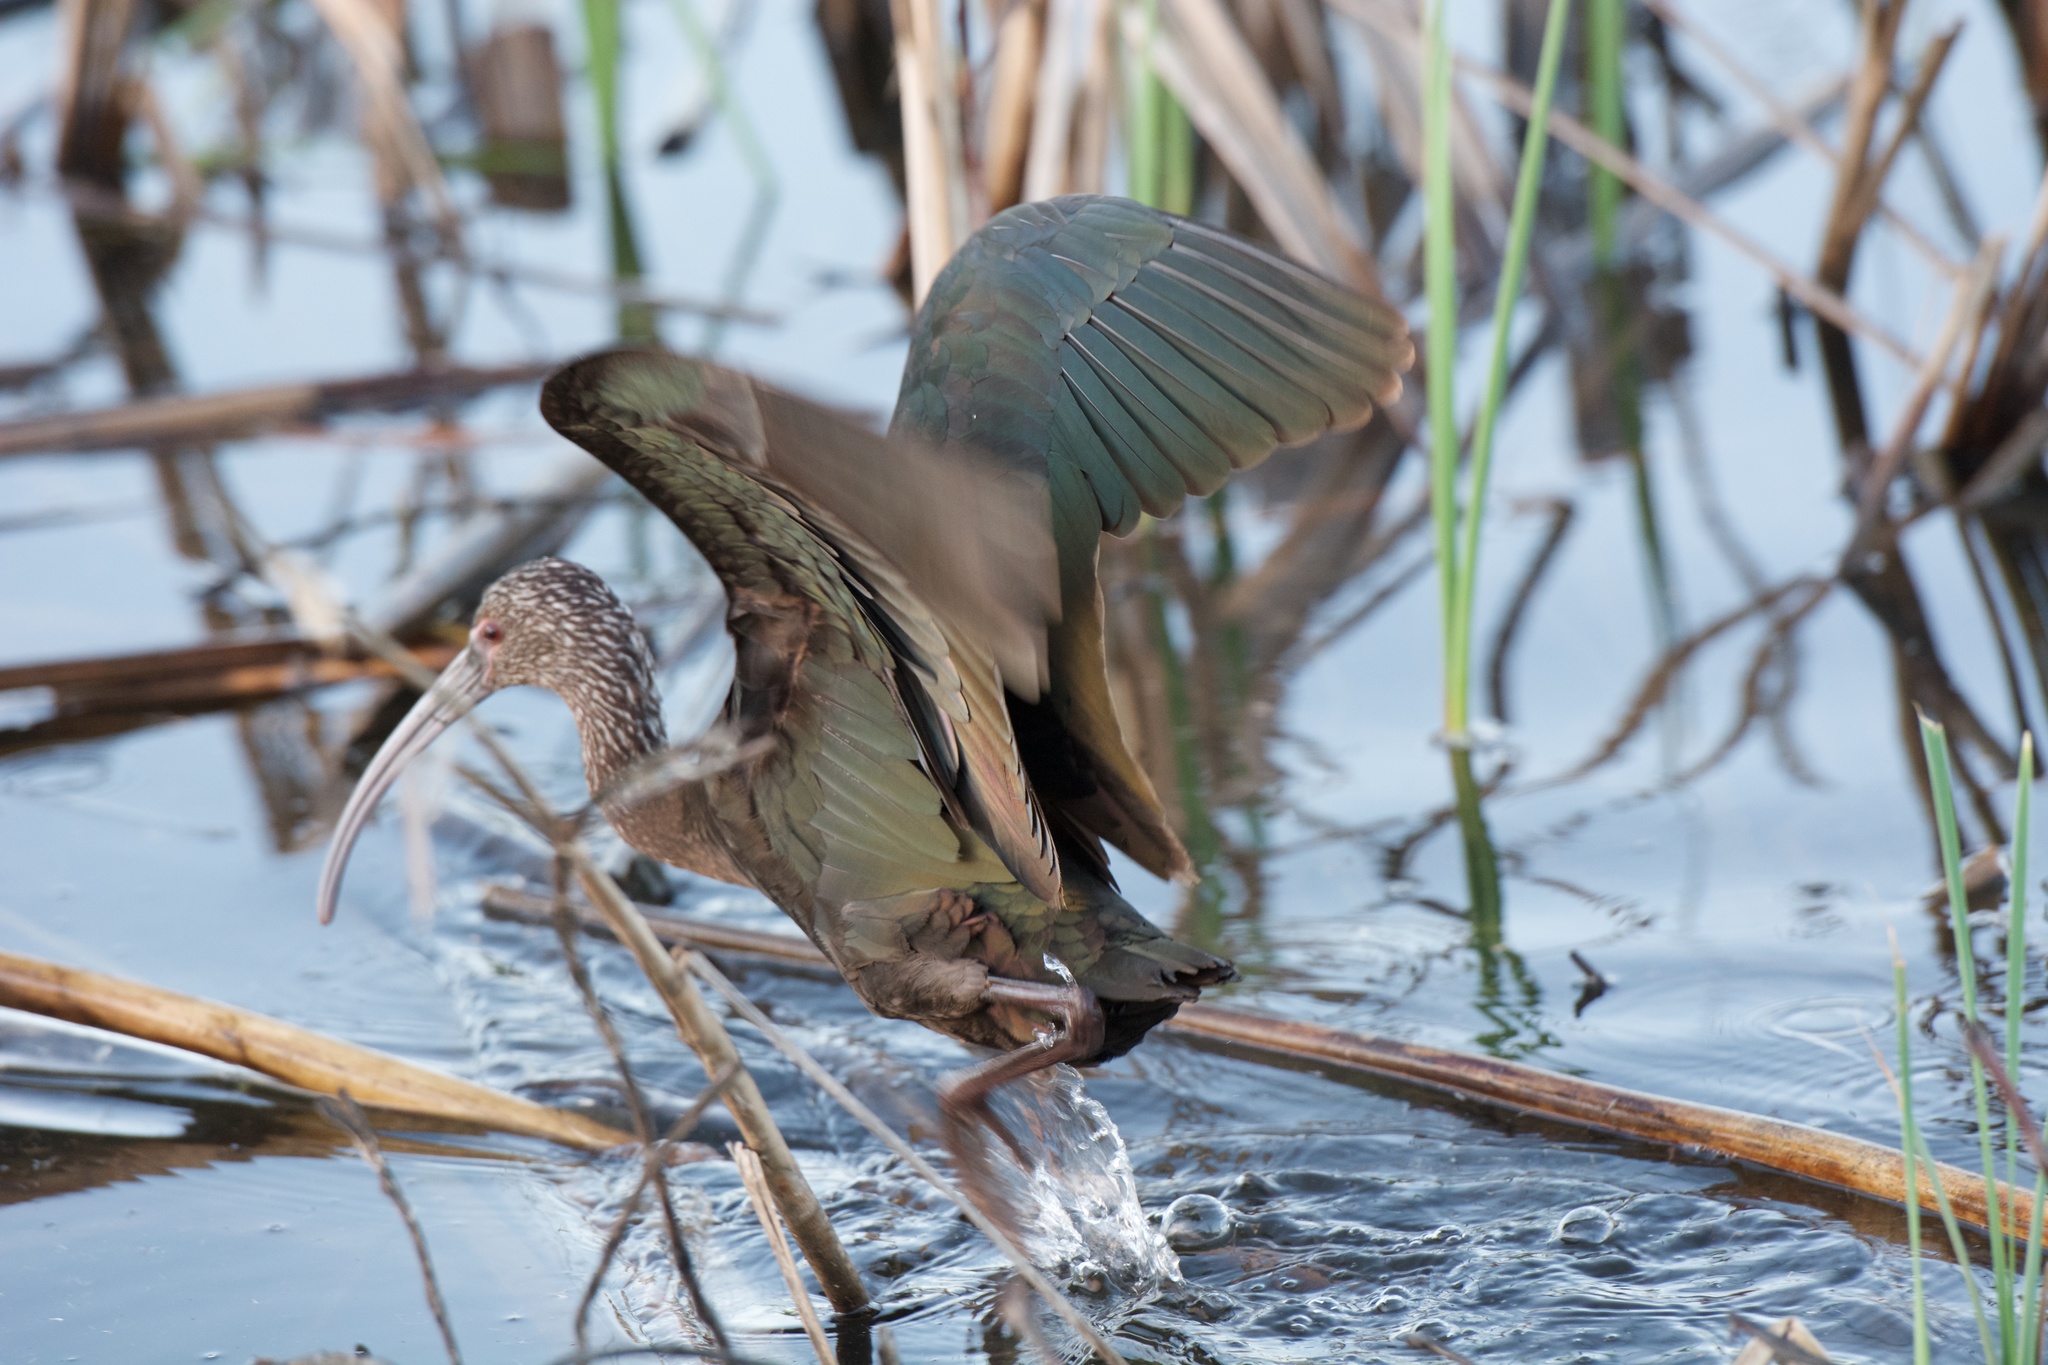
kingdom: Animalia
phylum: Chordata
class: Aves
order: Pelecaniformes
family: Threskiornithidae
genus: Plegadis
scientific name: Plegadis chihi
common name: White-faced ibis
